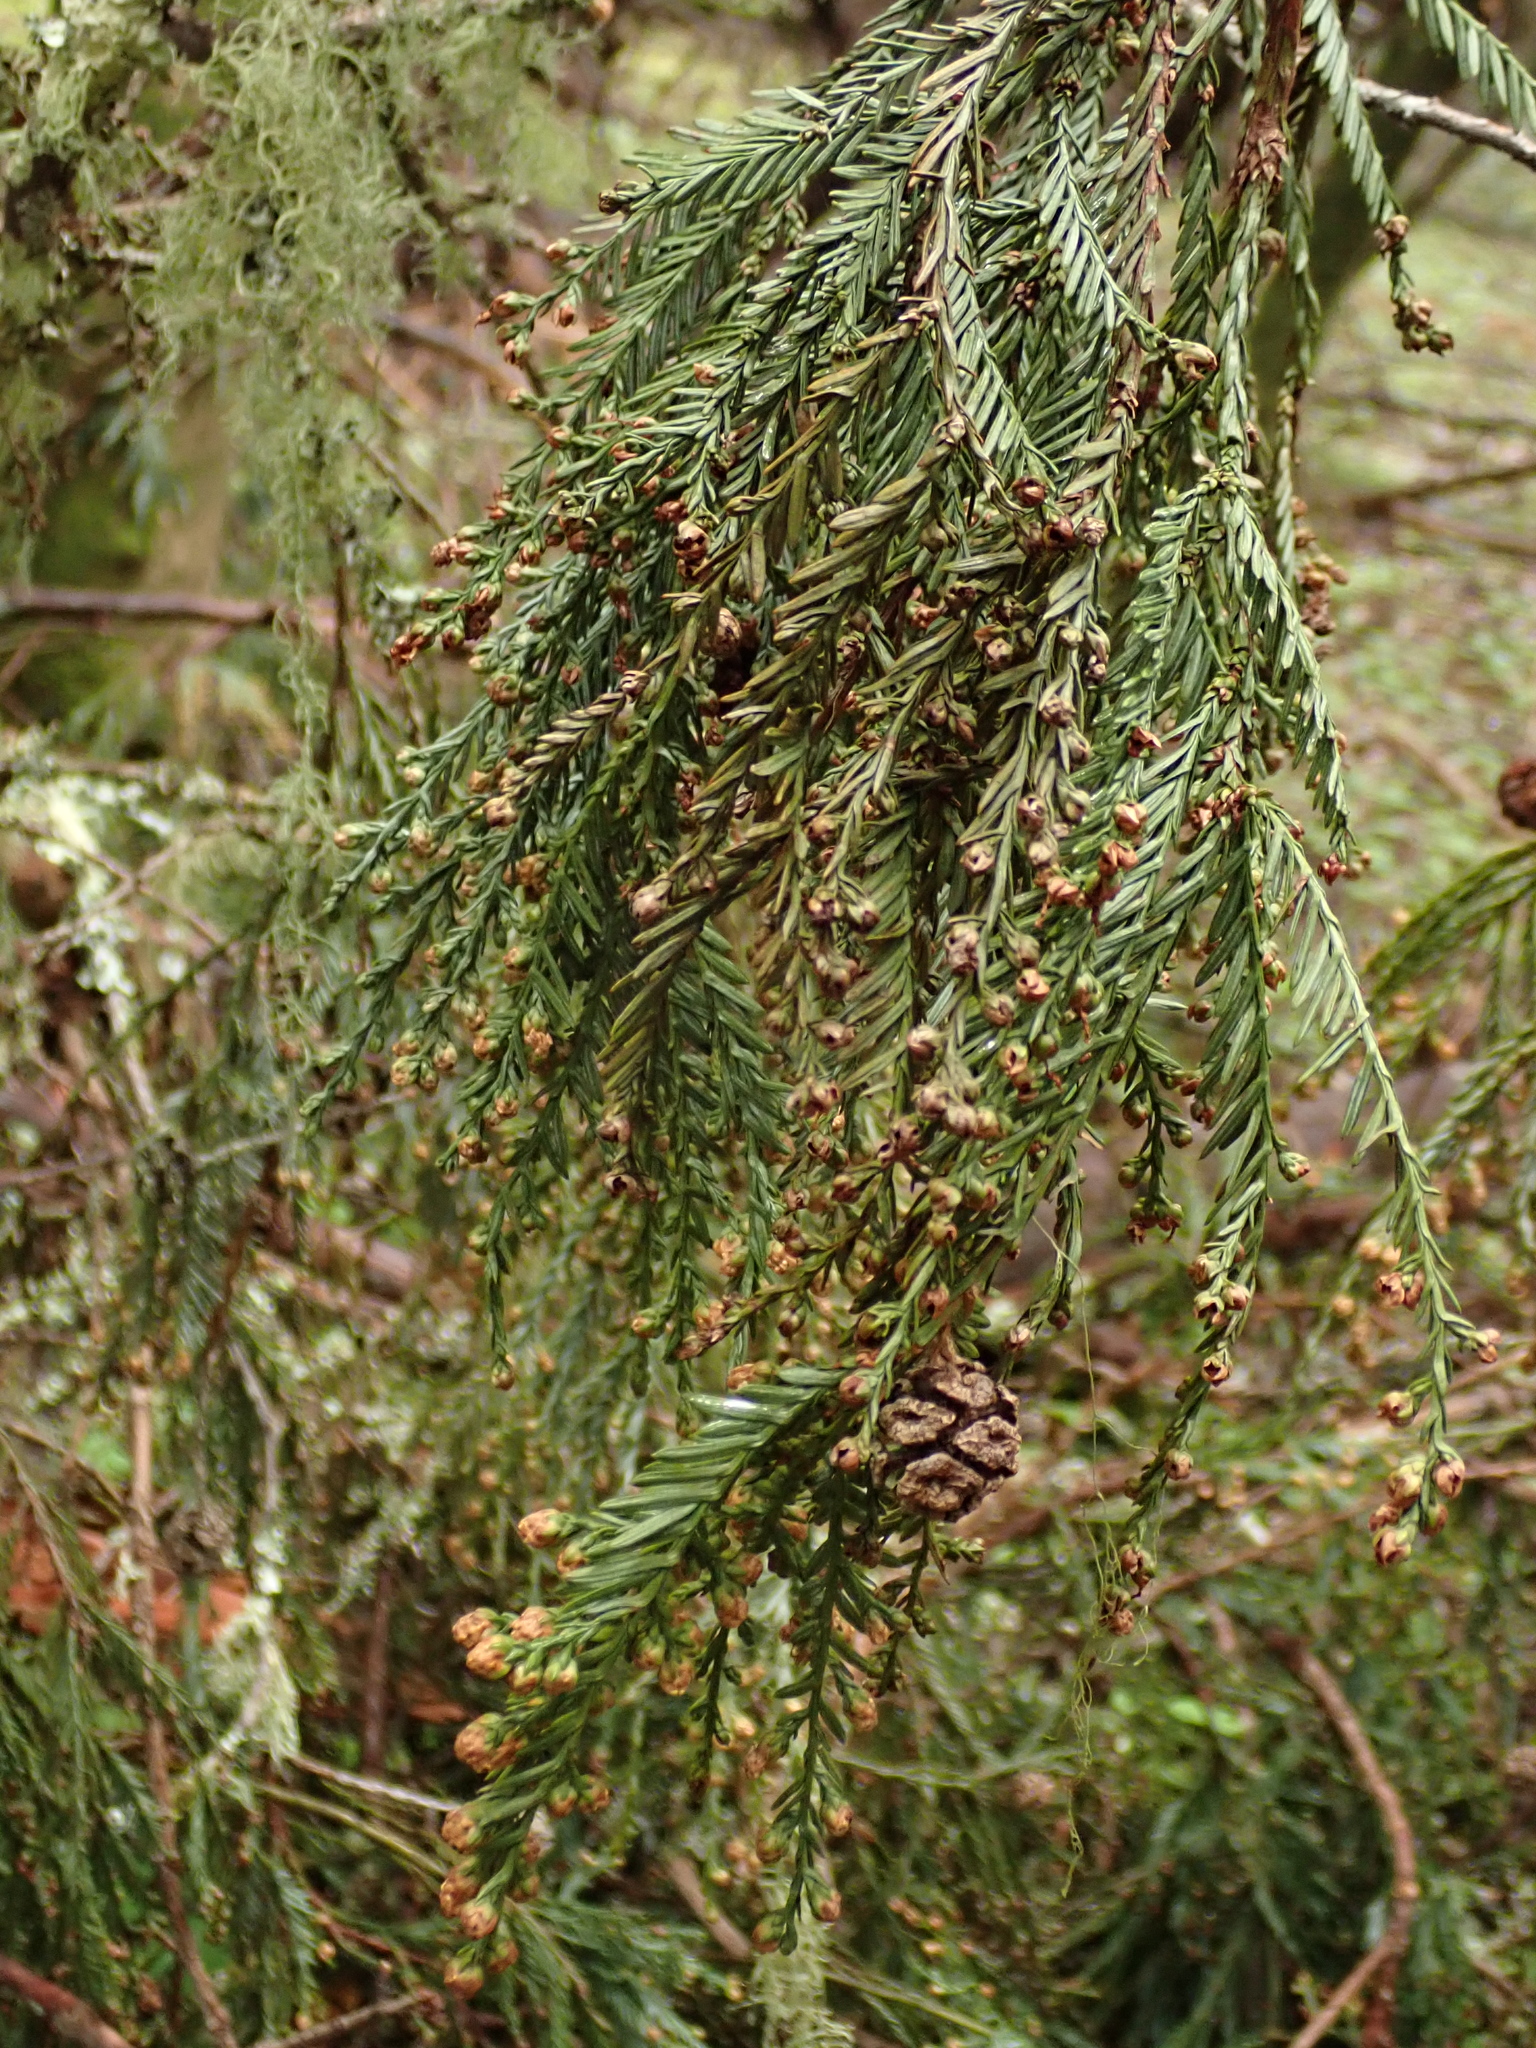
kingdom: Plantae
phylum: Tracheophyta
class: Pinopsida
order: Pinales
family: Cupressaceae
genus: Sequoia
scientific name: Sequoia sempervirens
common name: Coast redwood
